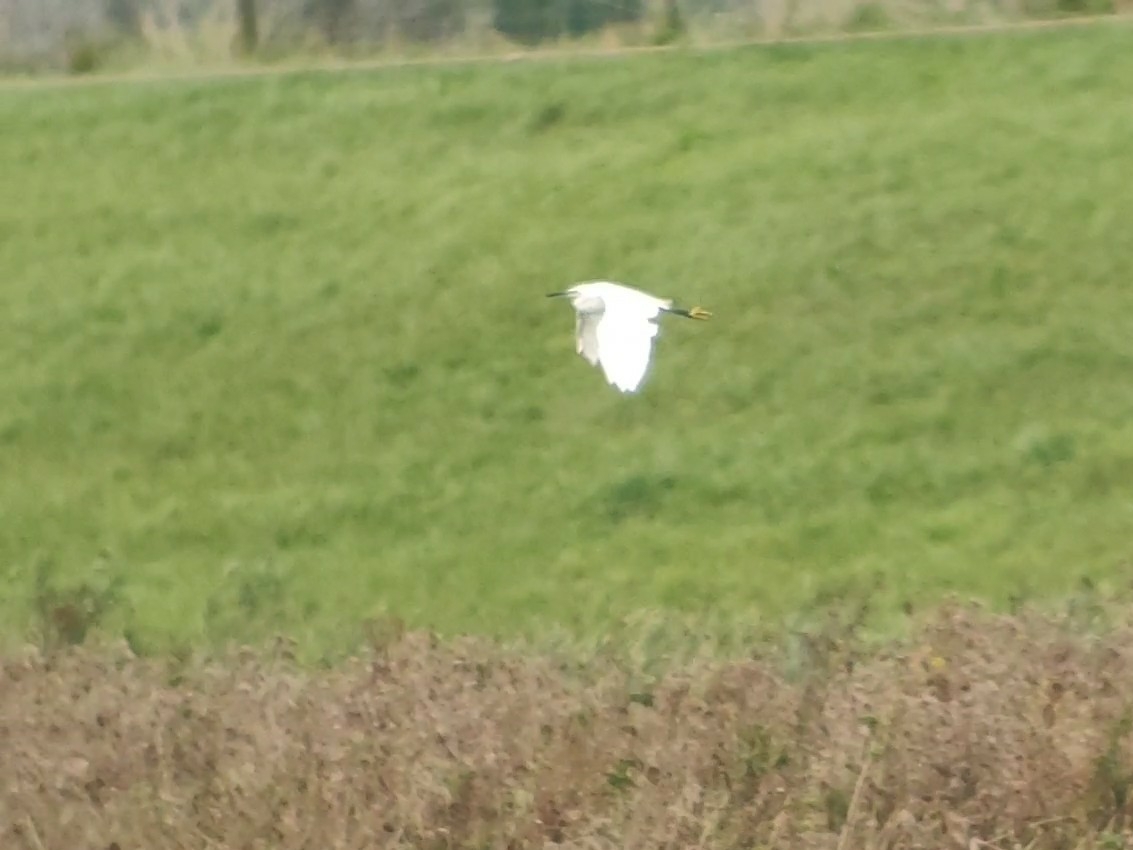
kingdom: Animalia
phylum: Chordata
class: Aves
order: Pelecaniformes
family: Ardeidae
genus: Egretta
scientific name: Egretta garzetta
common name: Little egret
